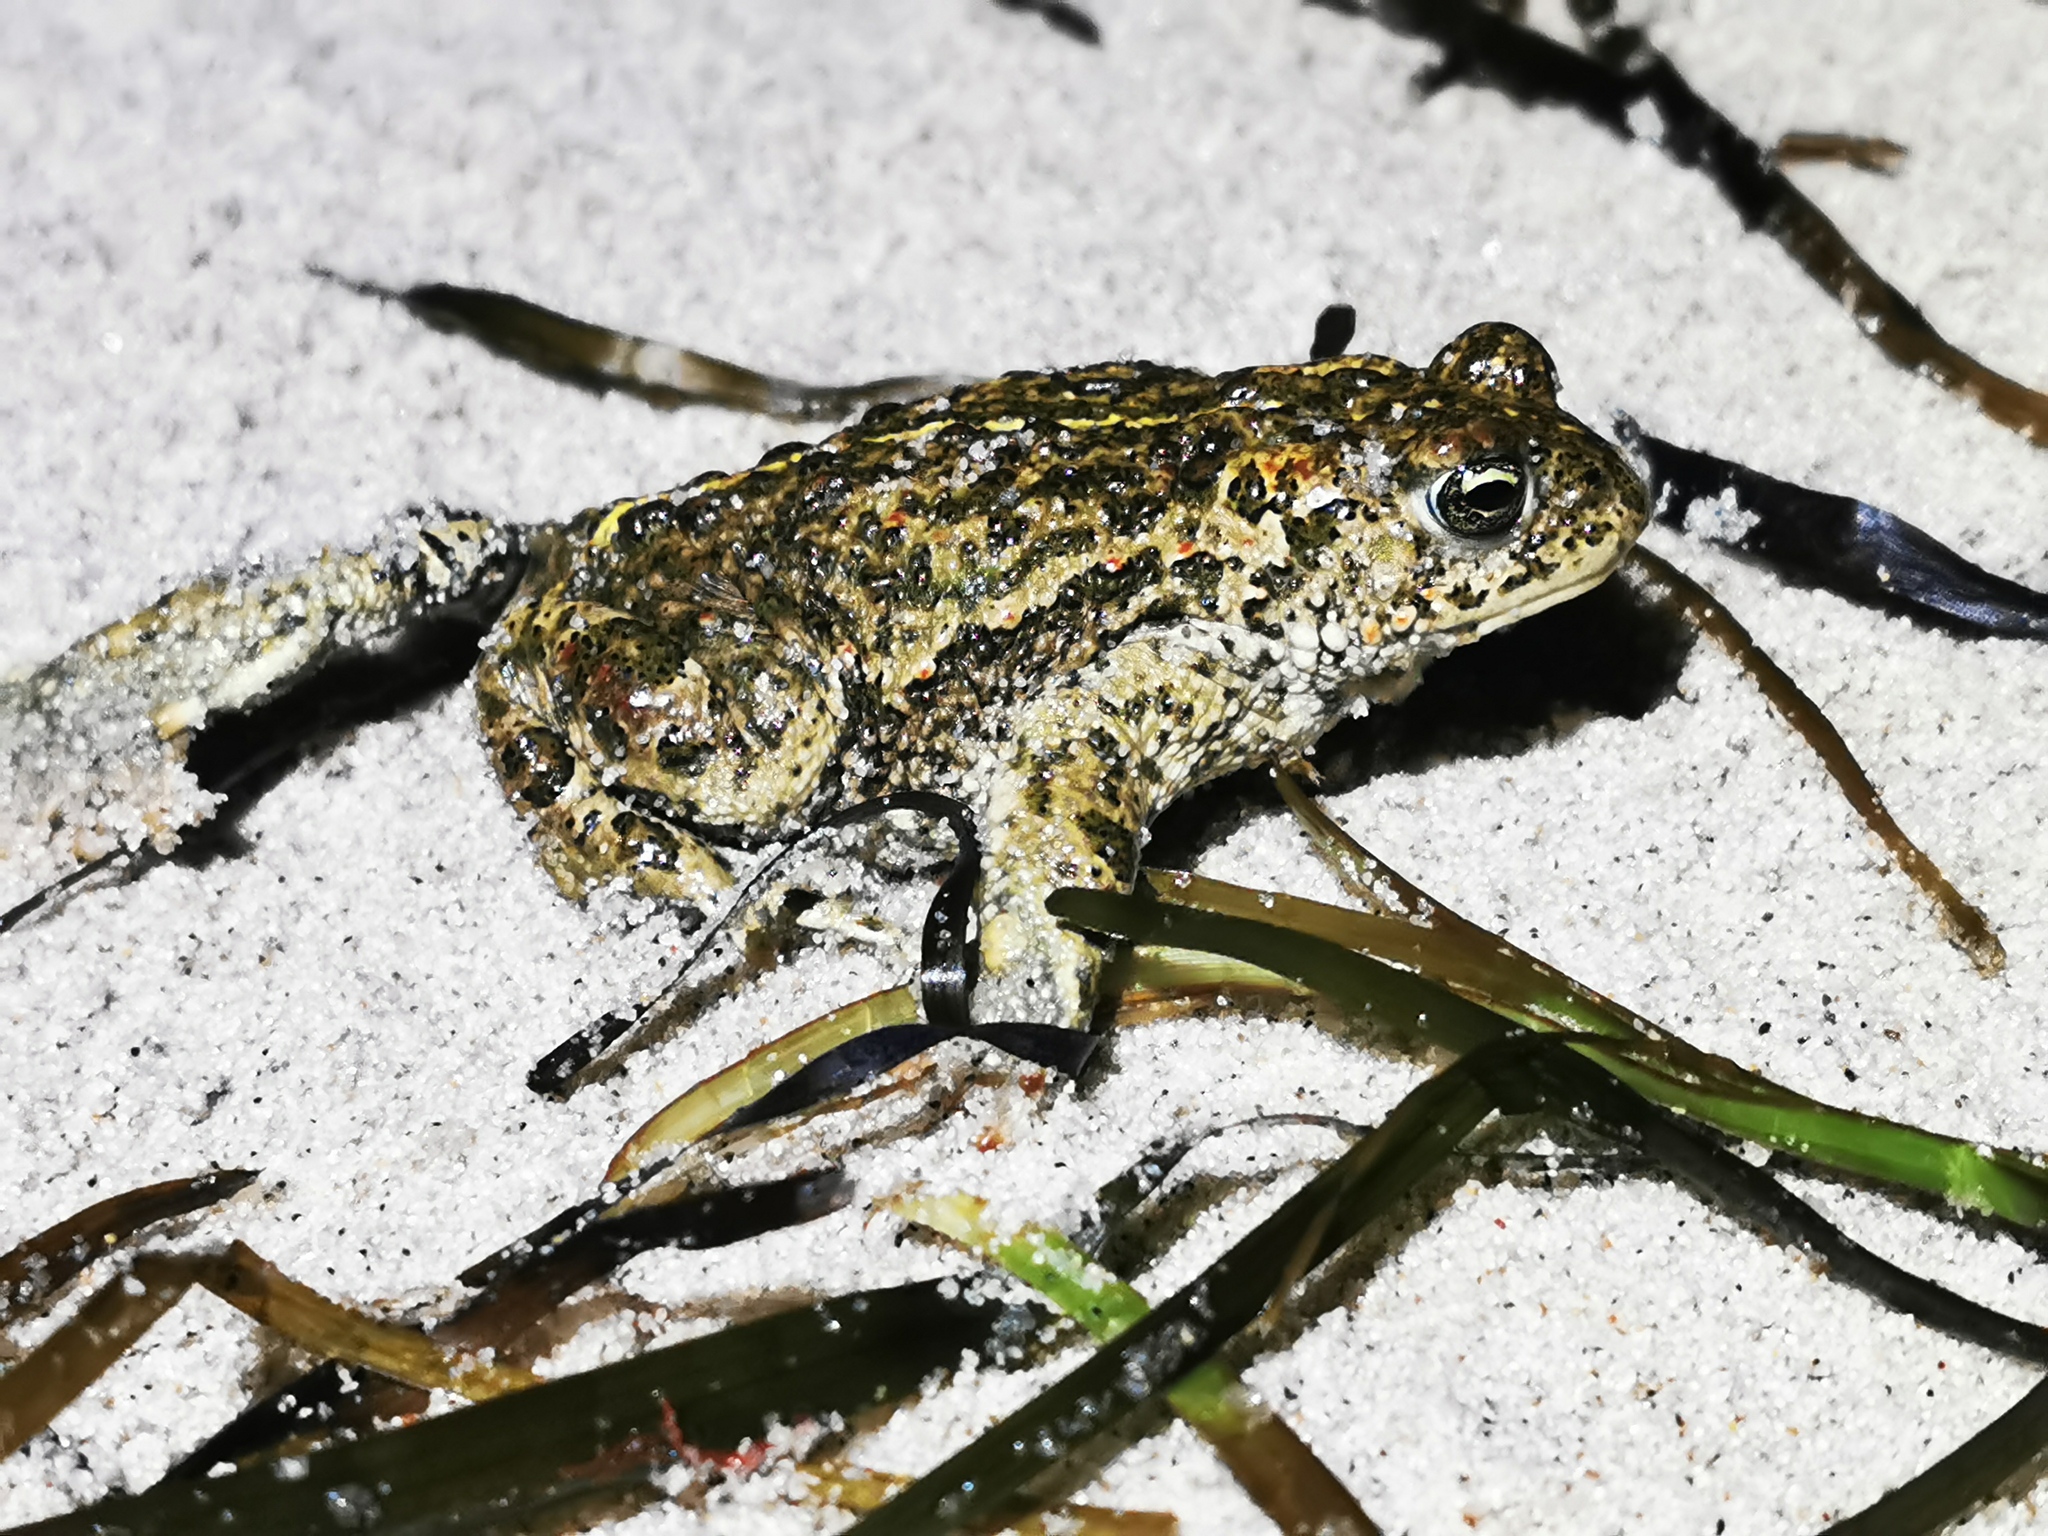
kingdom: Animalia
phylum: Chordata
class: Amphibia
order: Anura
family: Bufonidae
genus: Epidalea
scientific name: Epidalea calamita
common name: Natterjack toad
